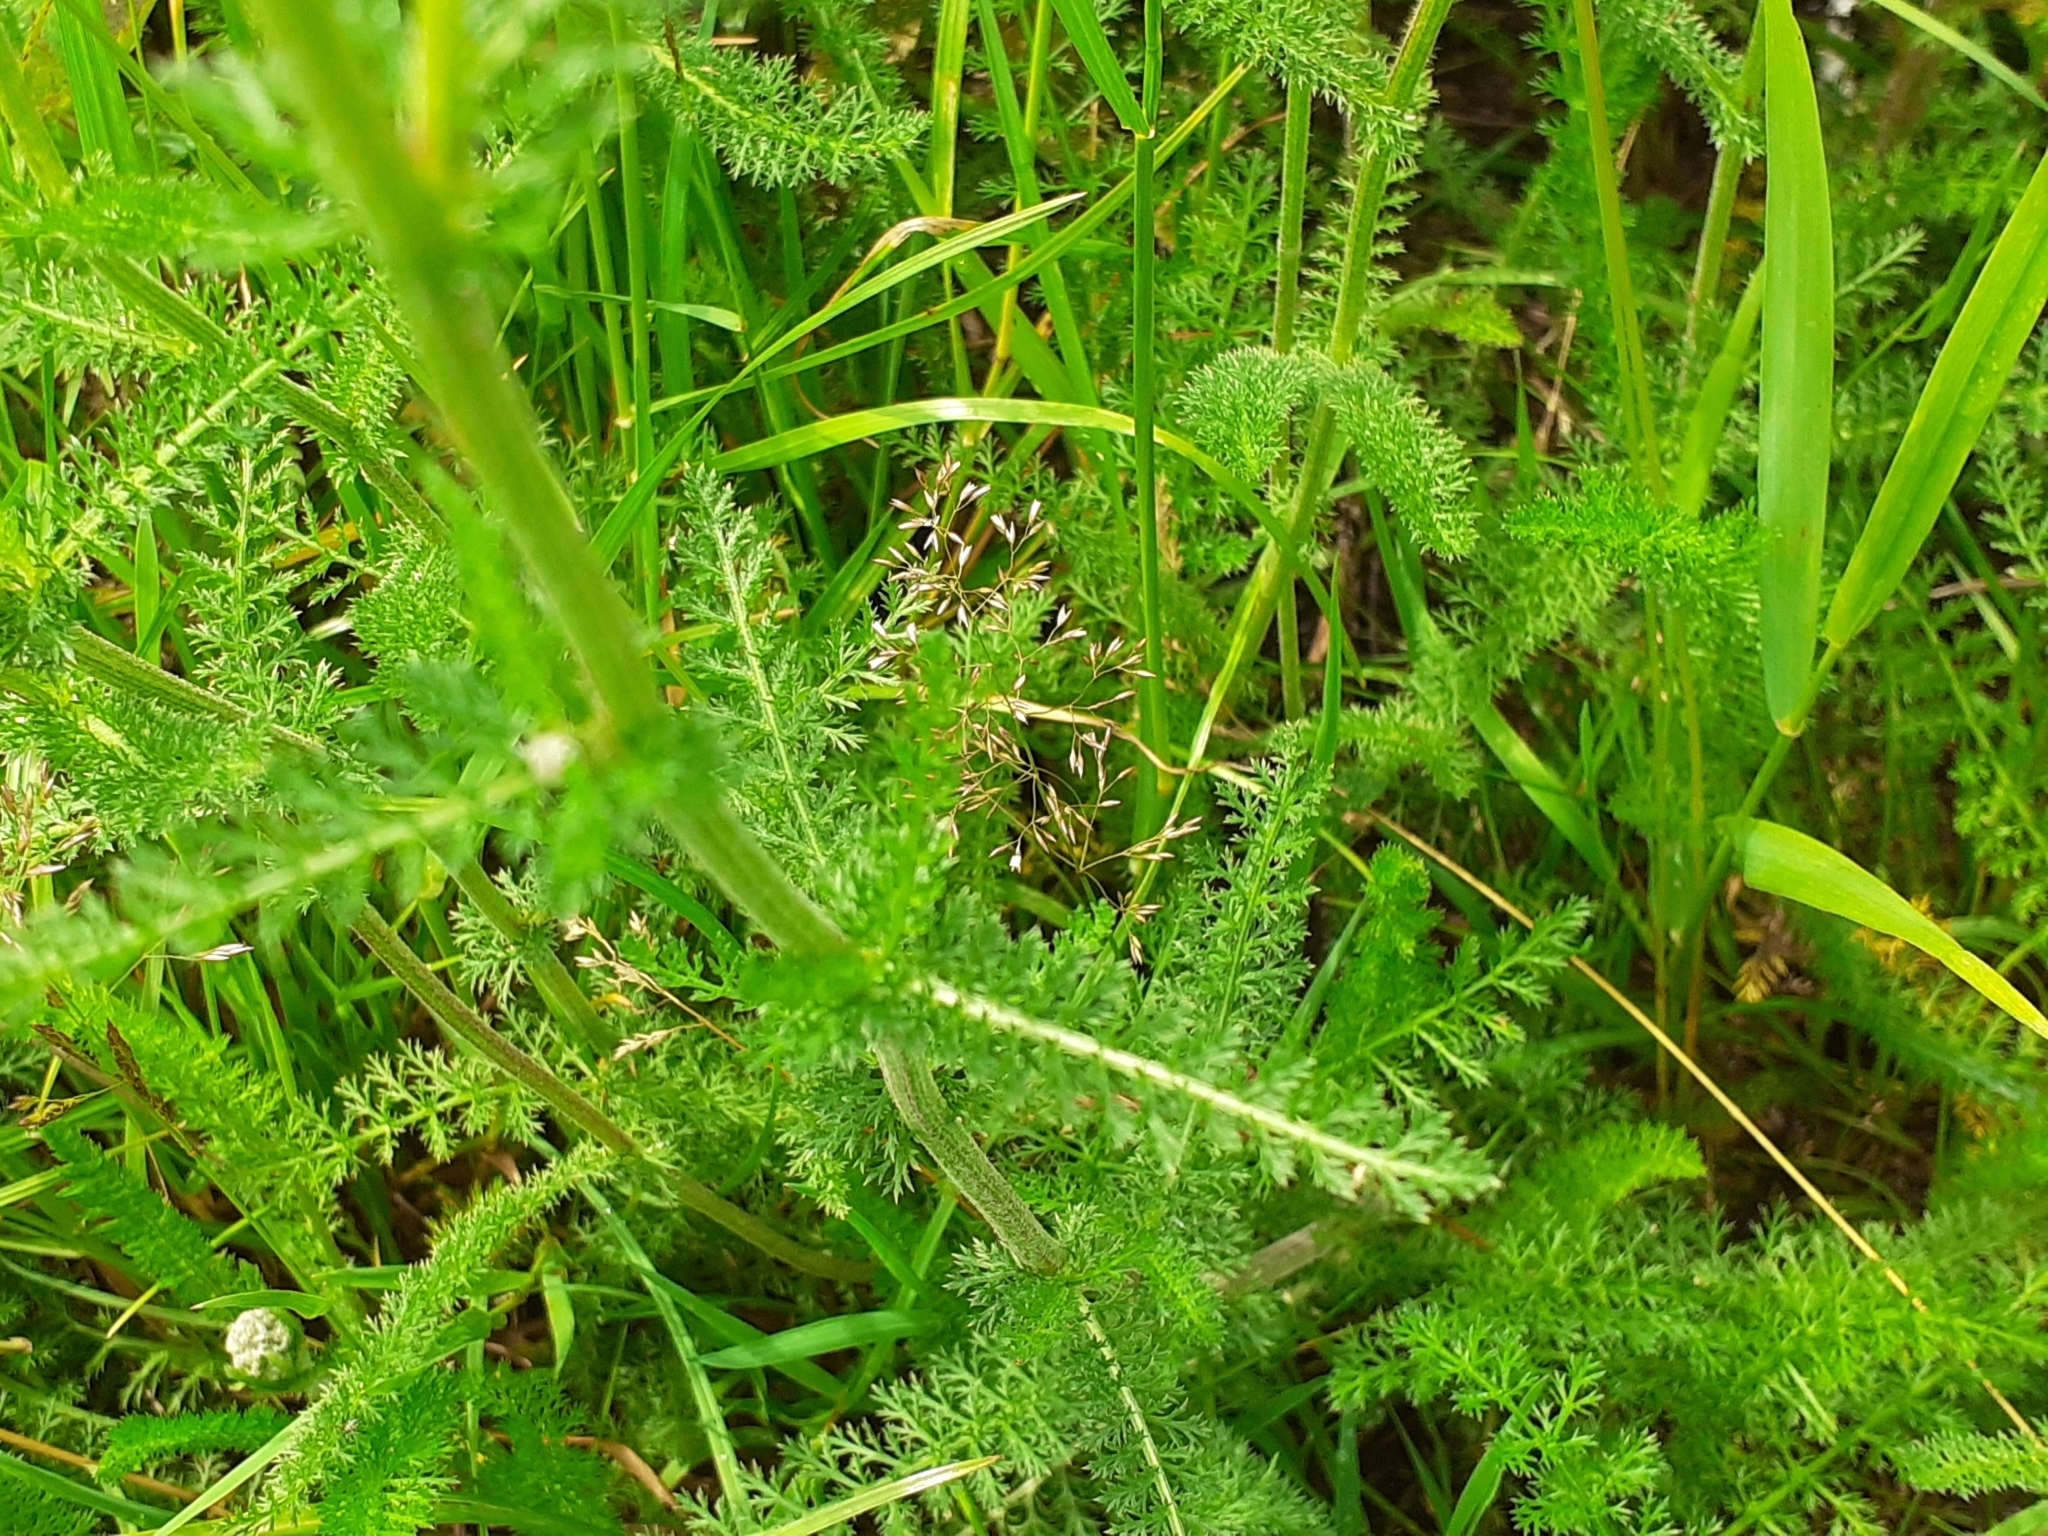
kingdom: Plantae
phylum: Tracheophyta
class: Magnoliopsida
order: Asterales
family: Asteraceae
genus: Achillea
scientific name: Achillea millefolium
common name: Yarrow
